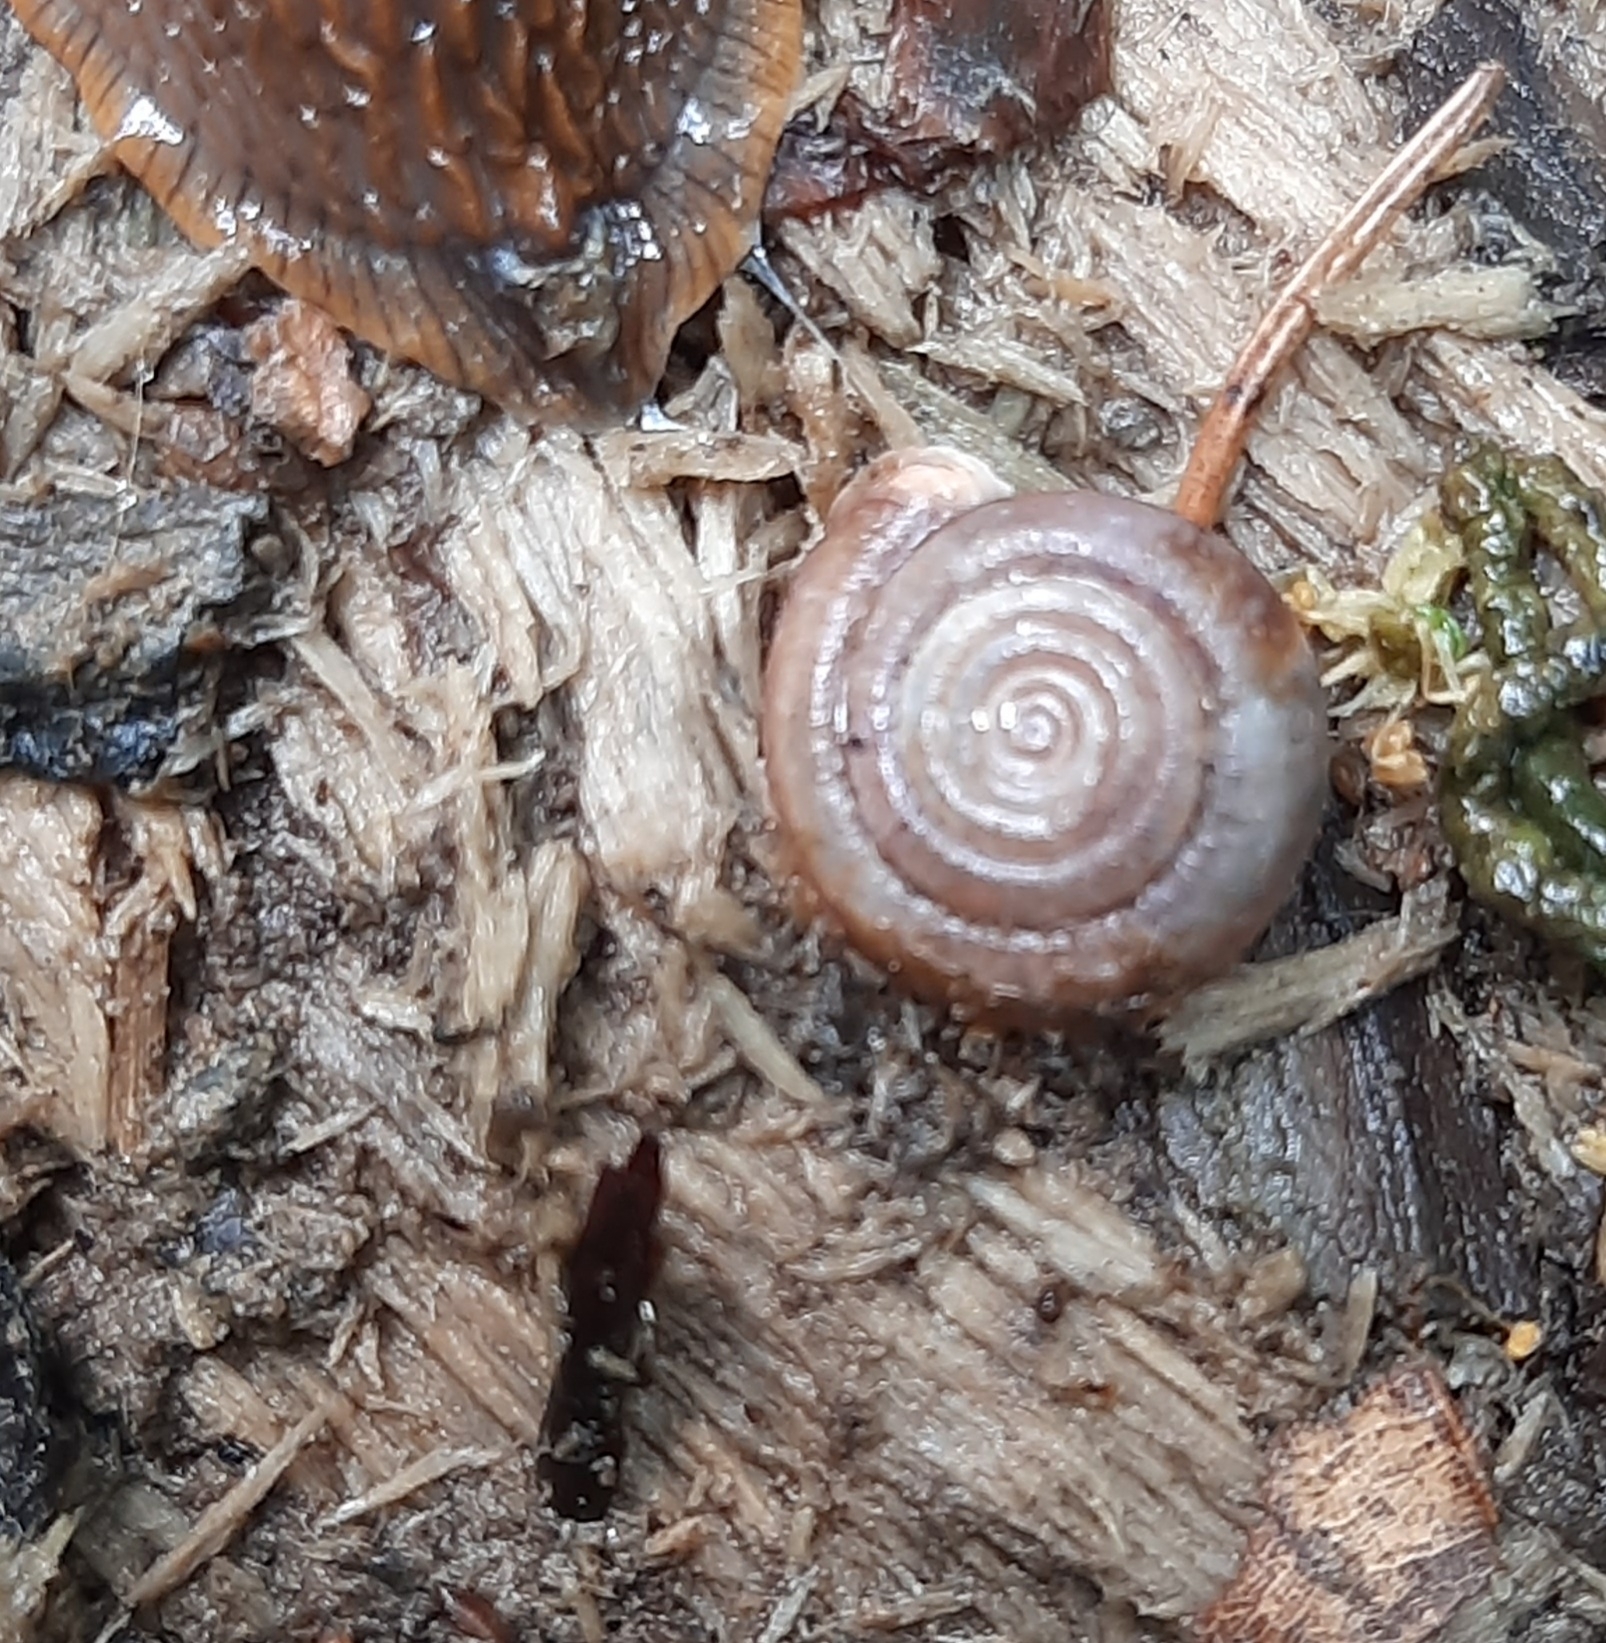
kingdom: Animalia
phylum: Mollusca
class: Gastropoda
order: Stylommatophora
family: Helicodontidae
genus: Helicodonta
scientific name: Helicodonta obvoluta
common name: Cheese snail
